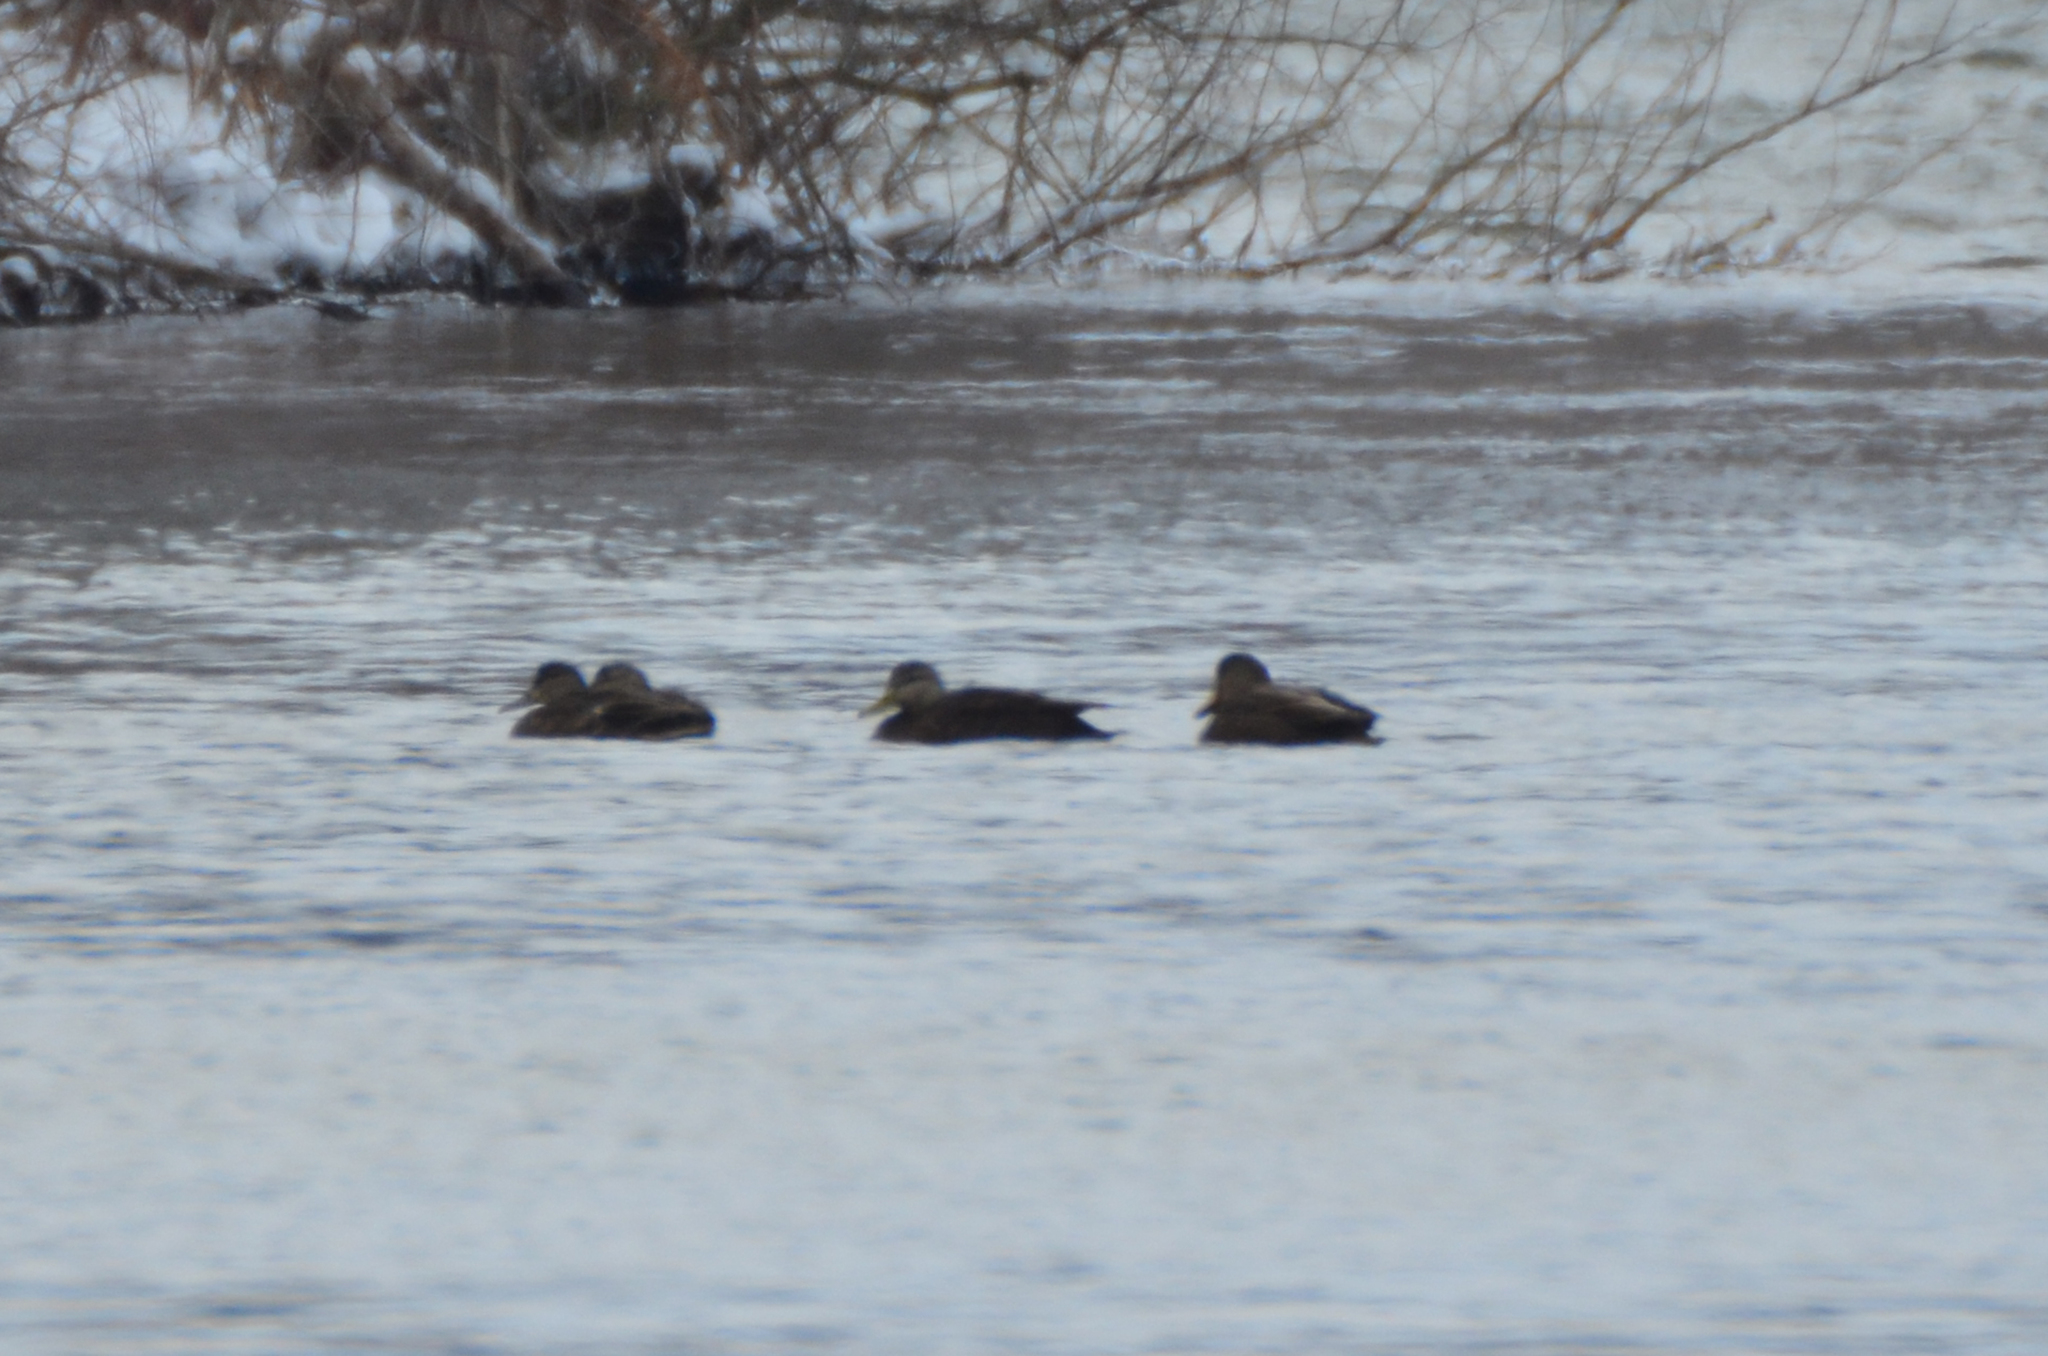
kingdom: Animalia
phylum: Chordata
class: Aves
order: Anseriformes
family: Anatidae
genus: Anas
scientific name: Anas rubripes
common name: American black duck
